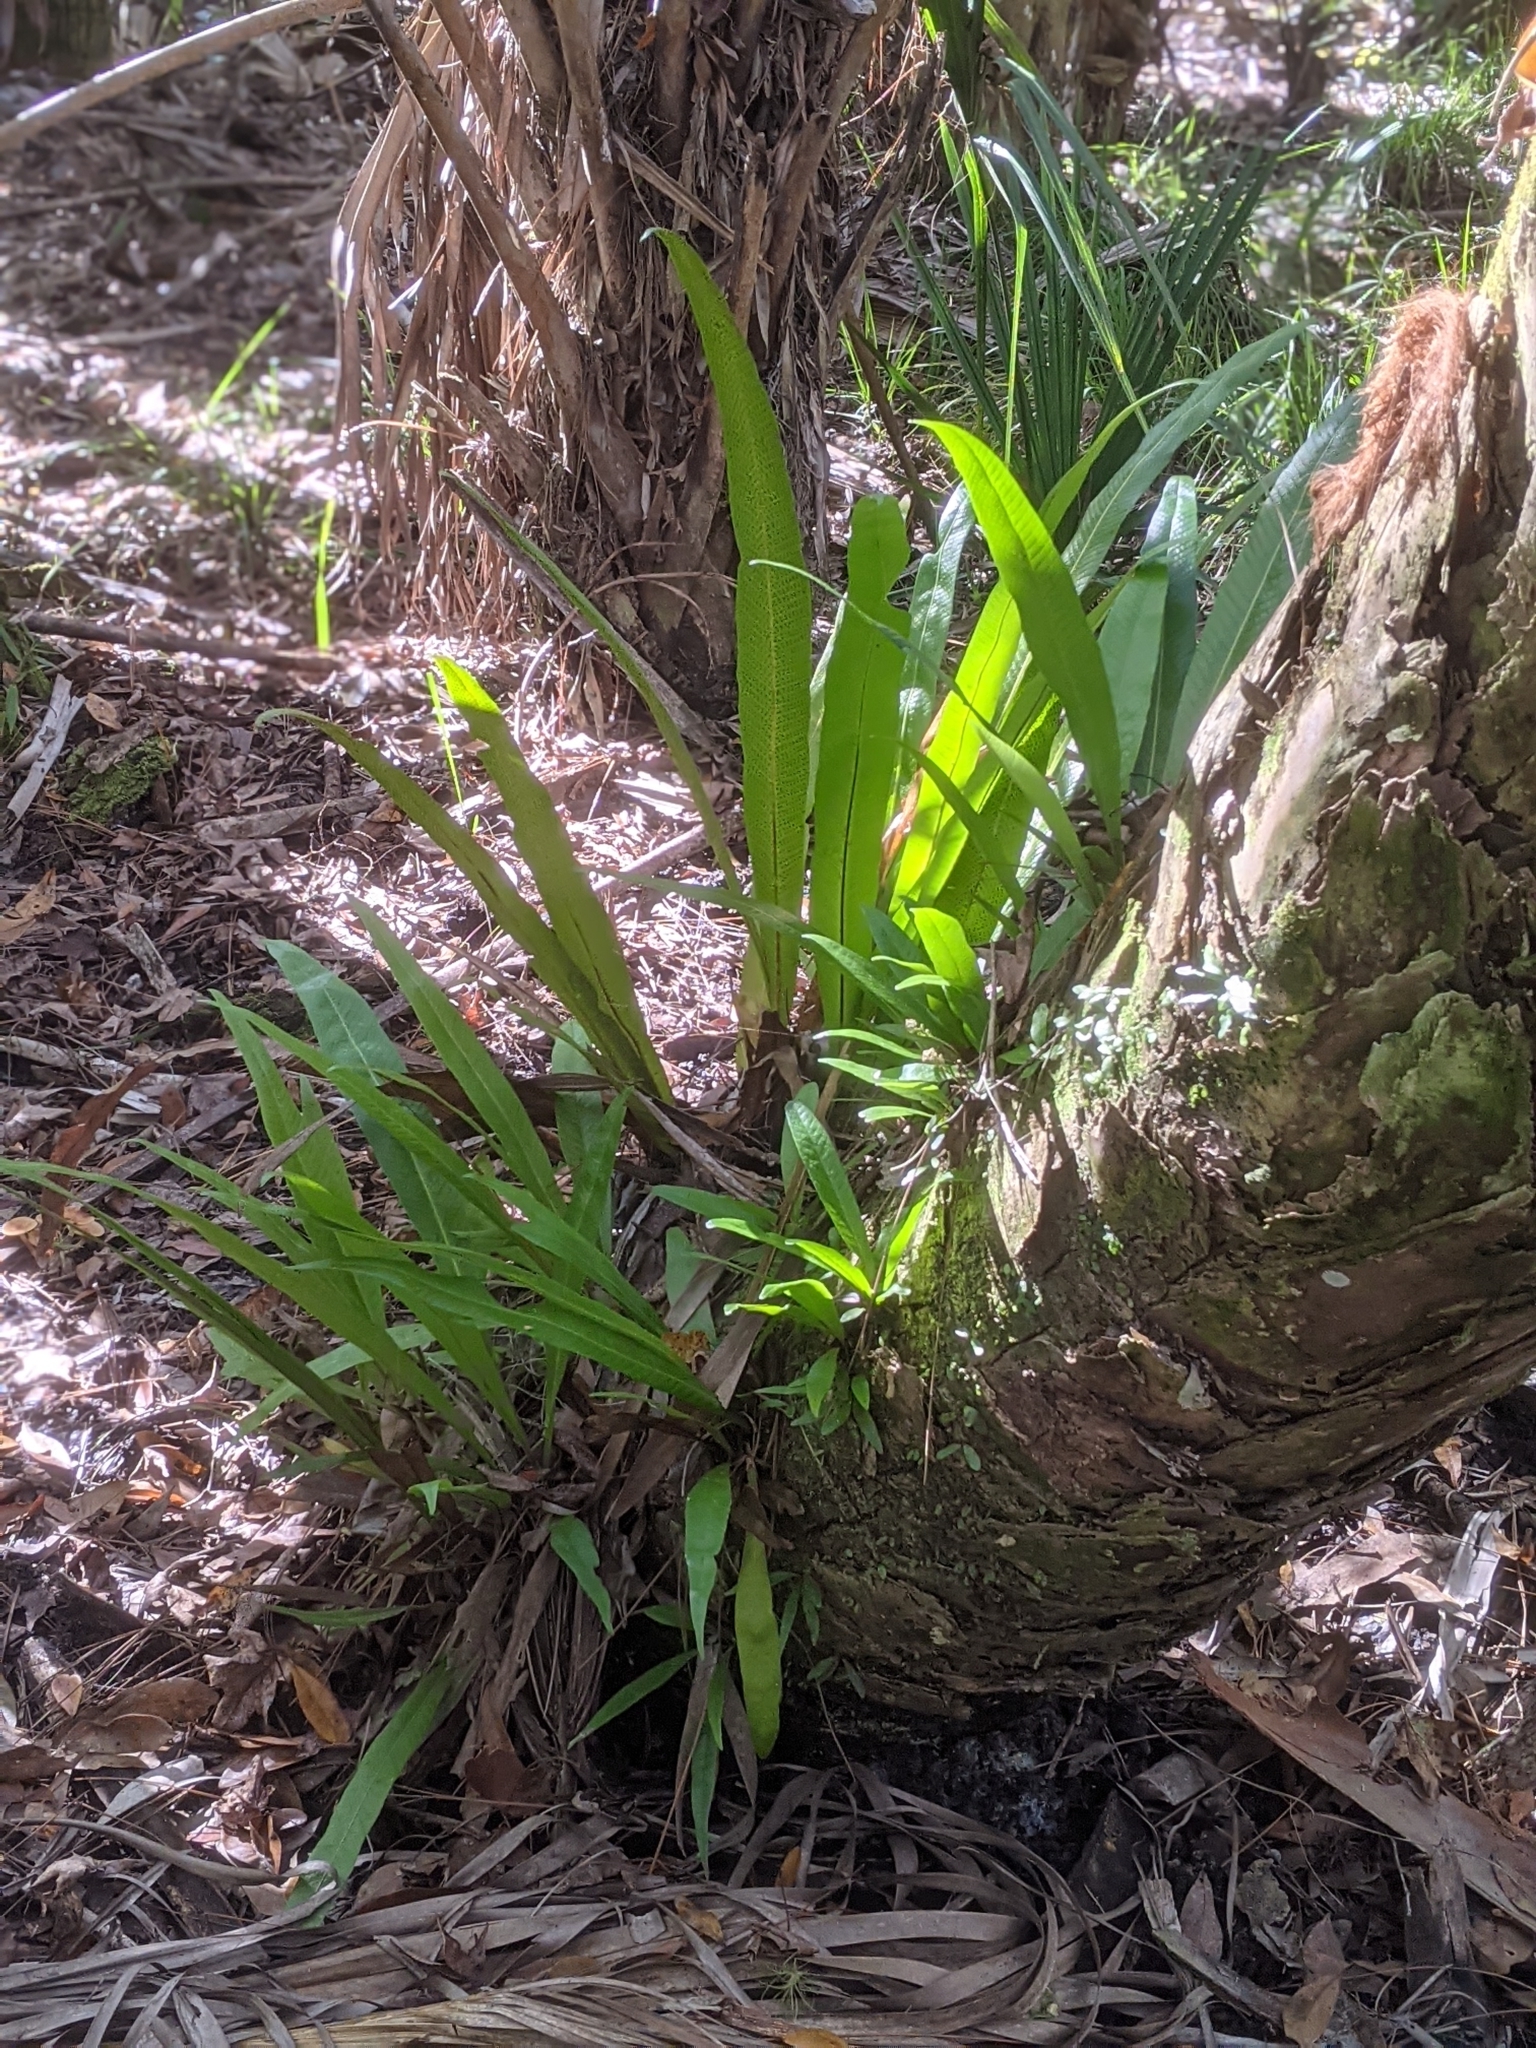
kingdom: Plantae
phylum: Tracheophyta
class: Polypodiopsida
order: Polypodiales
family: Polypodiaceae
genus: Campyloneurum
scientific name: Campyloneurum phyllitidis
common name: Cow-tongue fern
